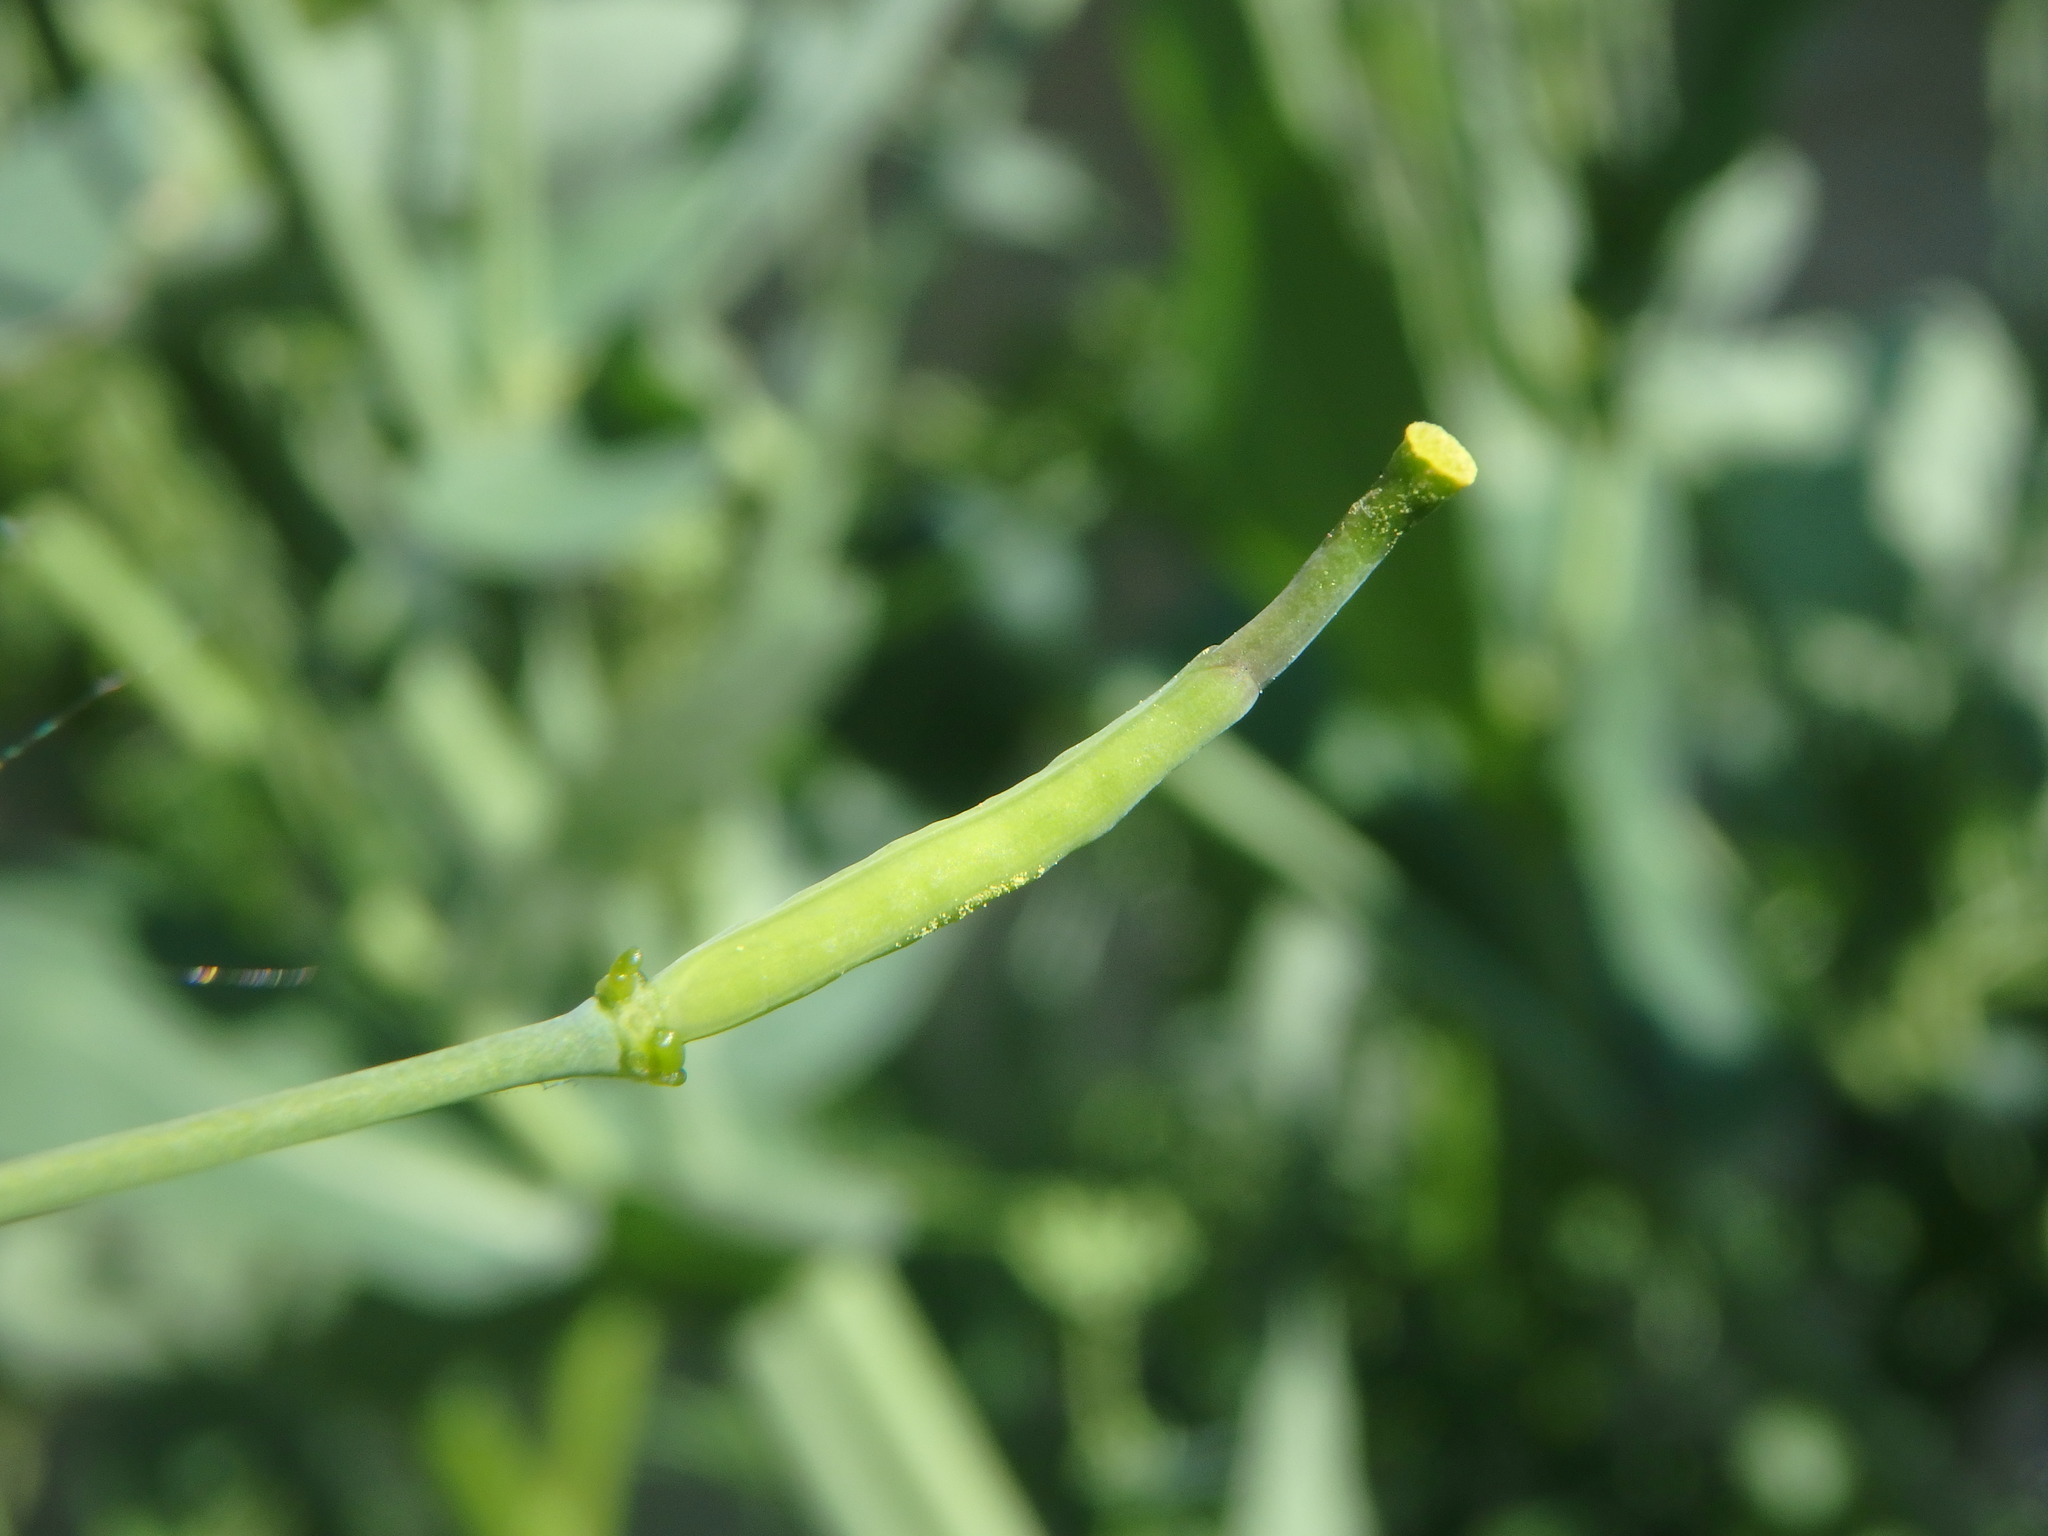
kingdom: Plantae
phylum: Tracheophyta
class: Magnoliopsida
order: Brassicales
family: Brassicaceae
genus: Brassica
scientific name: Brassica napus
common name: Rape
